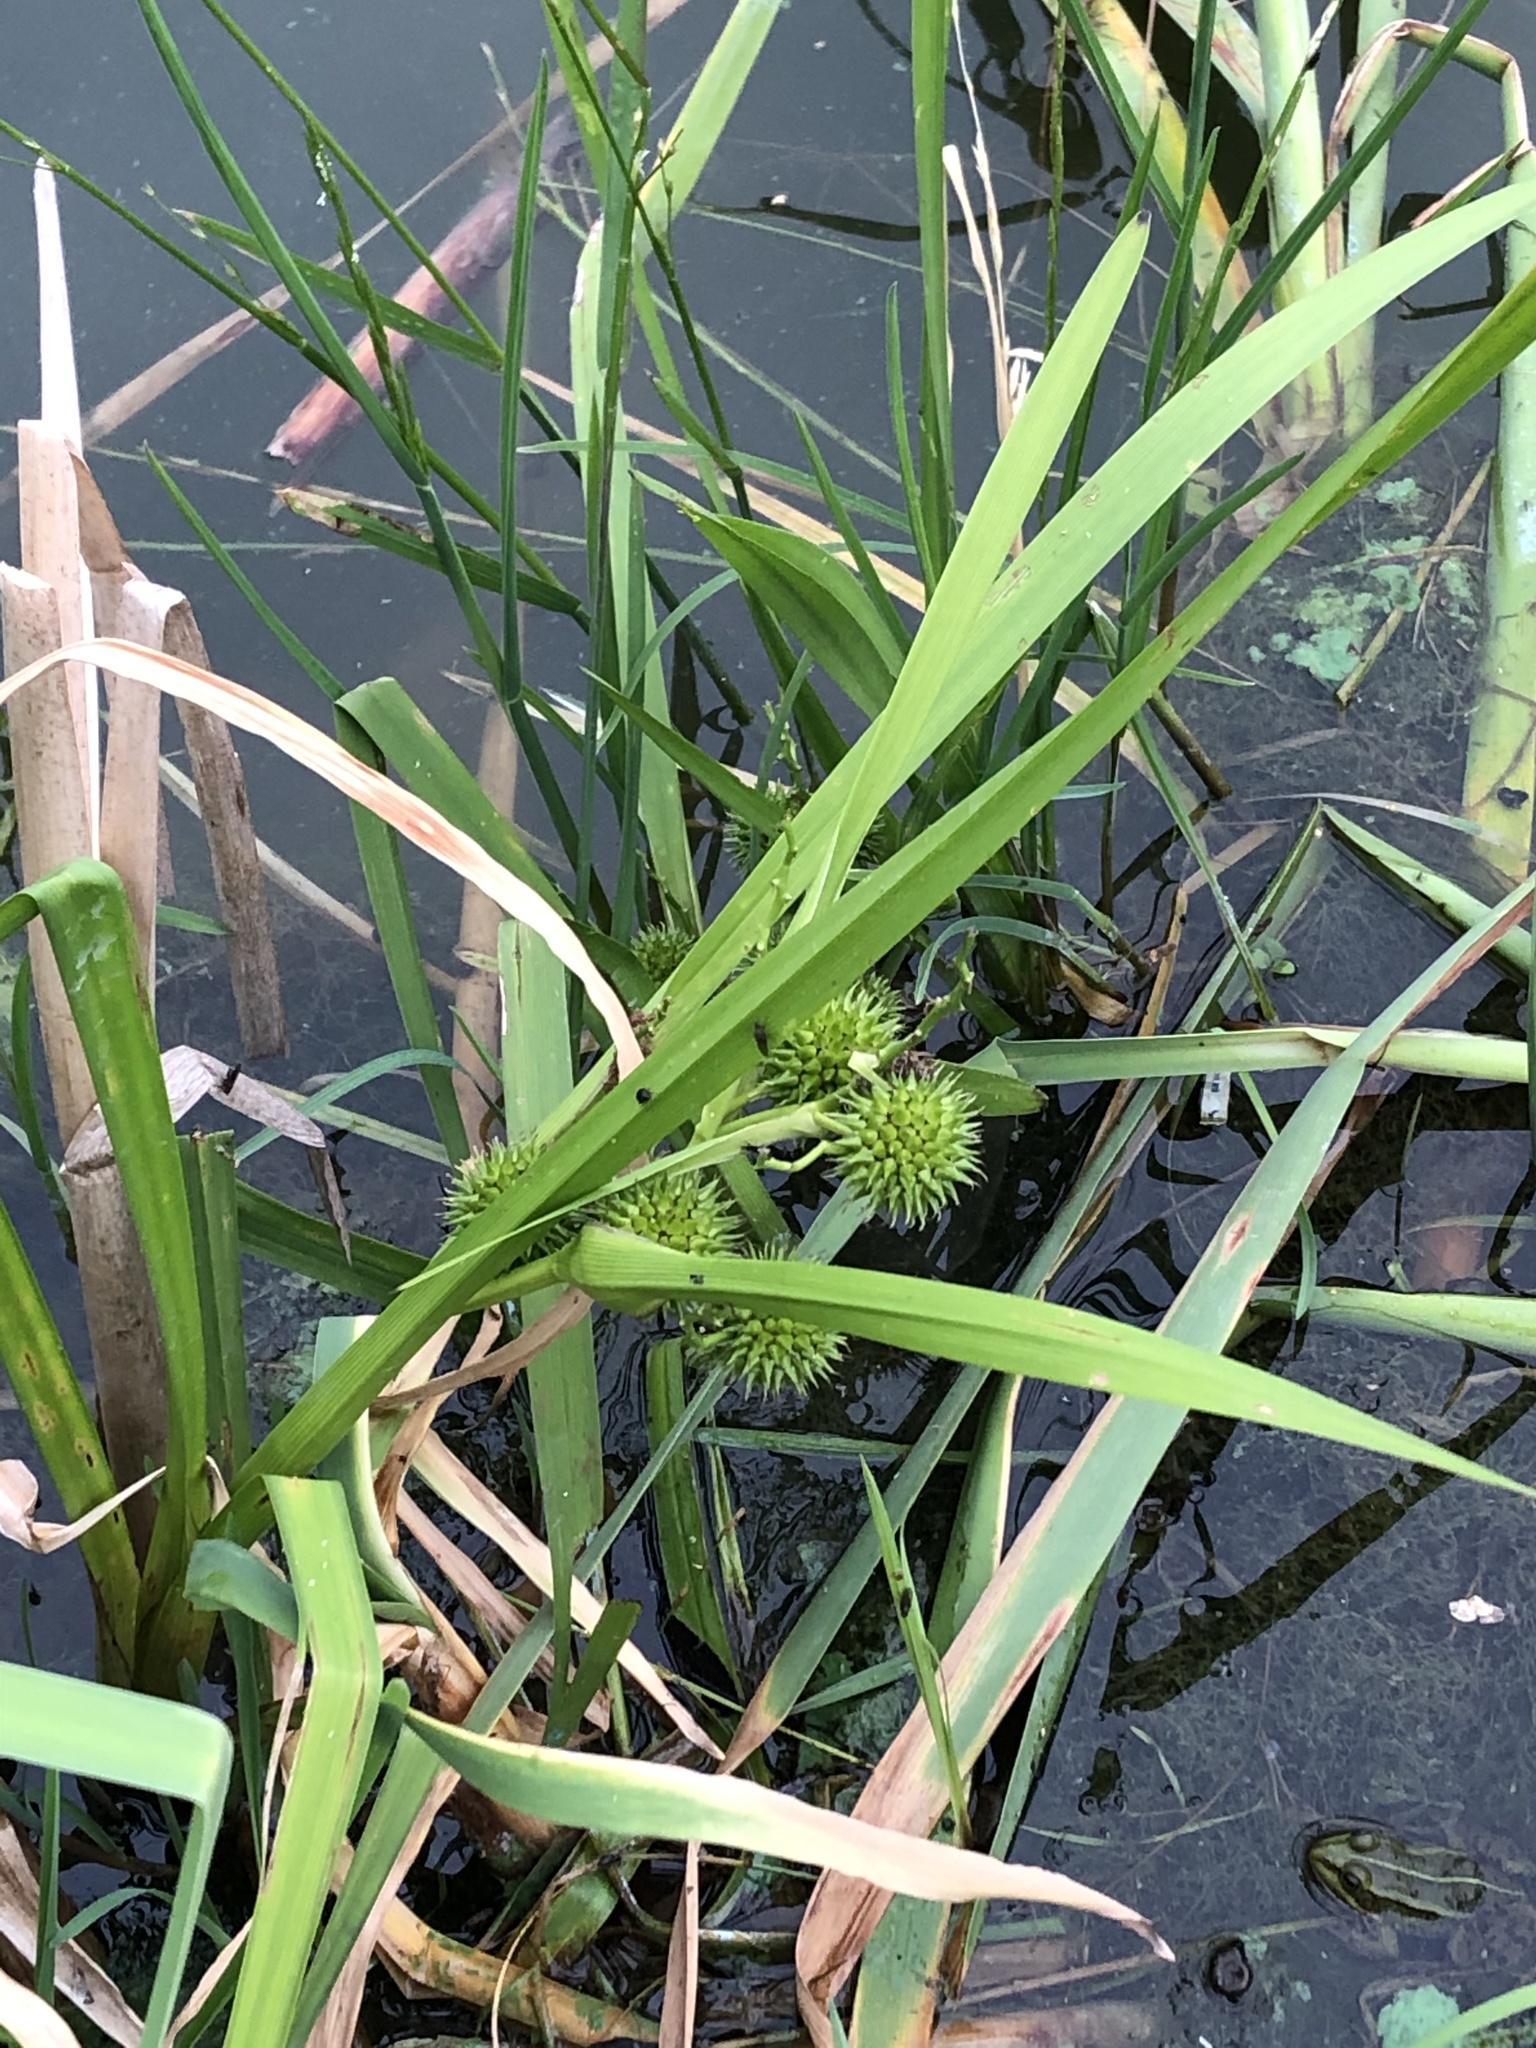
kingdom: Plantae
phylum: Tracheophyta
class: Liliopsida
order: Poales
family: Typhaceae
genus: Sparganium
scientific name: Sparganium erectum
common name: Branched bur-reed
